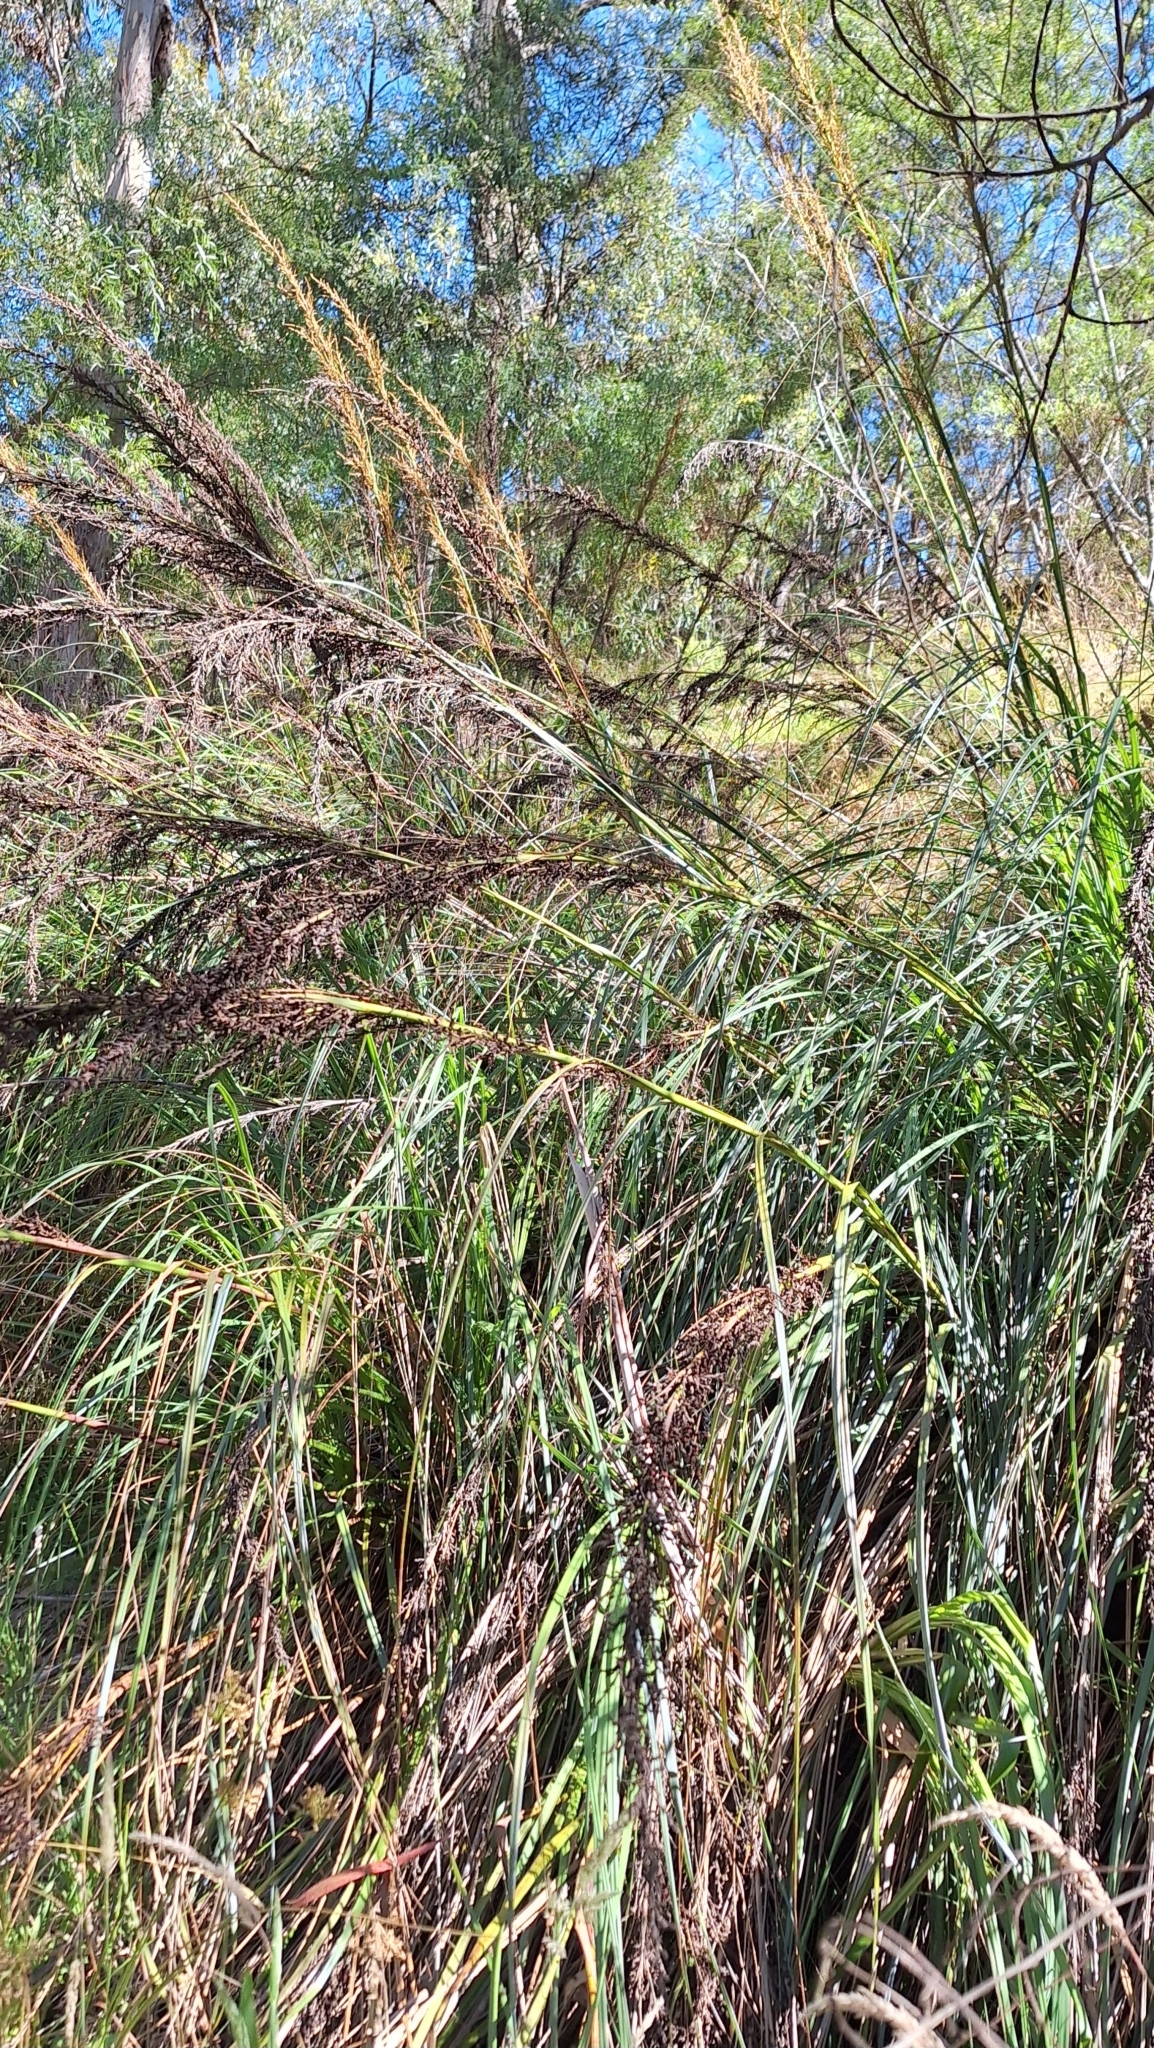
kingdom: Plantae
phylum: Tracheophyta
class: Liliopsida
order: Poales
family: Cyperaceae
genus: Gahnia
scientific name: Gahnia sieberiana
